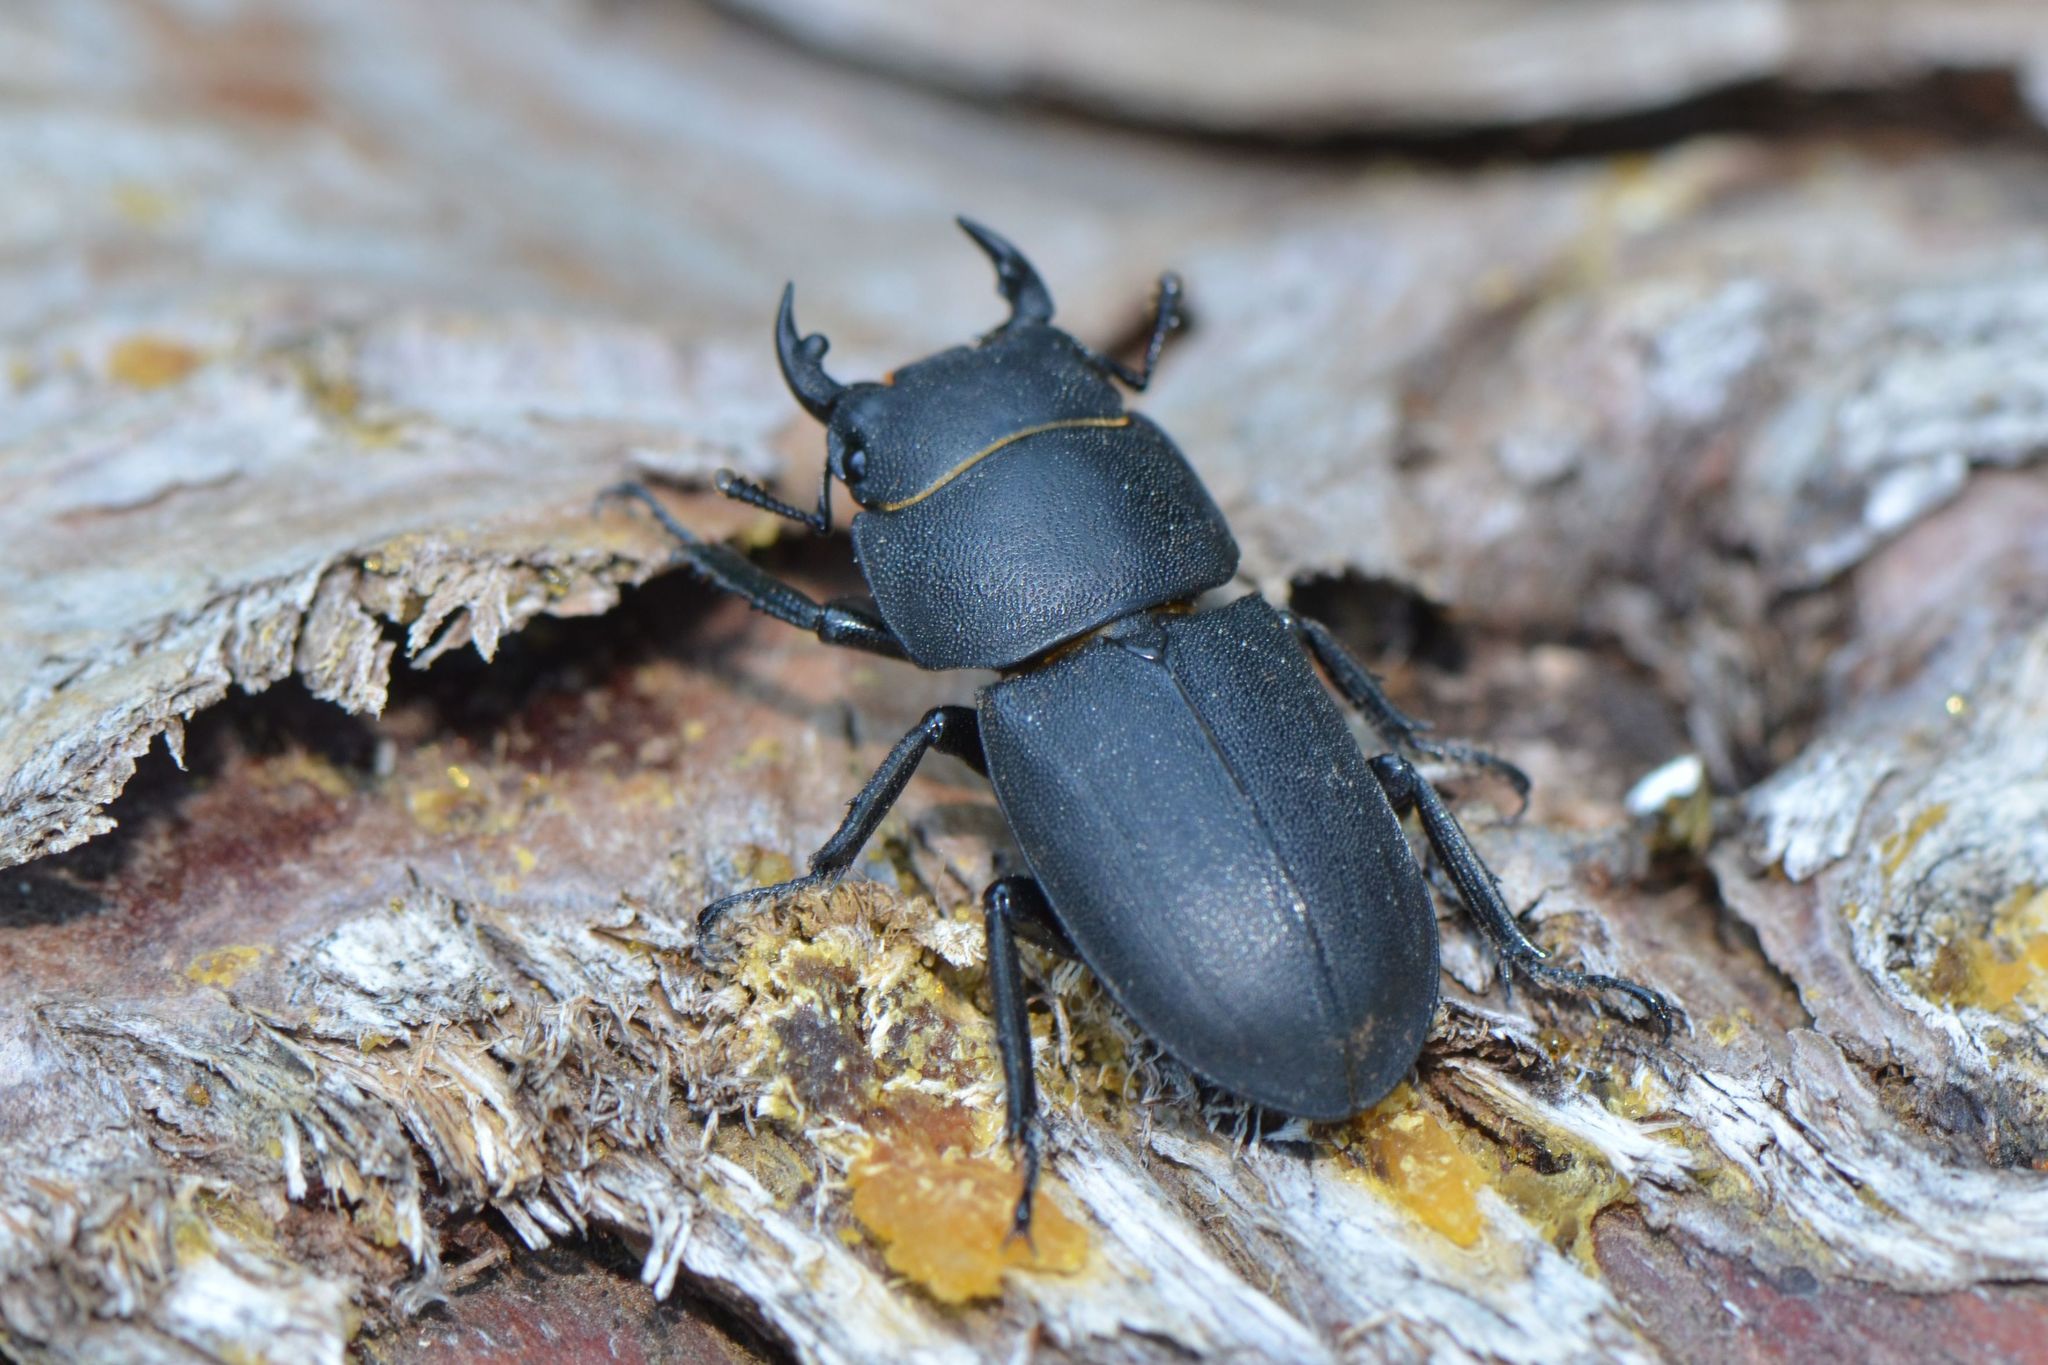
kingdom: Animalia
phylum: Arthropoda
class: Insecta
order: Coleoptera
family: Lucanidae
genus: Dorcus
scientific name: Dorcus parallelipipedus
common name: Lesser stag beetle
